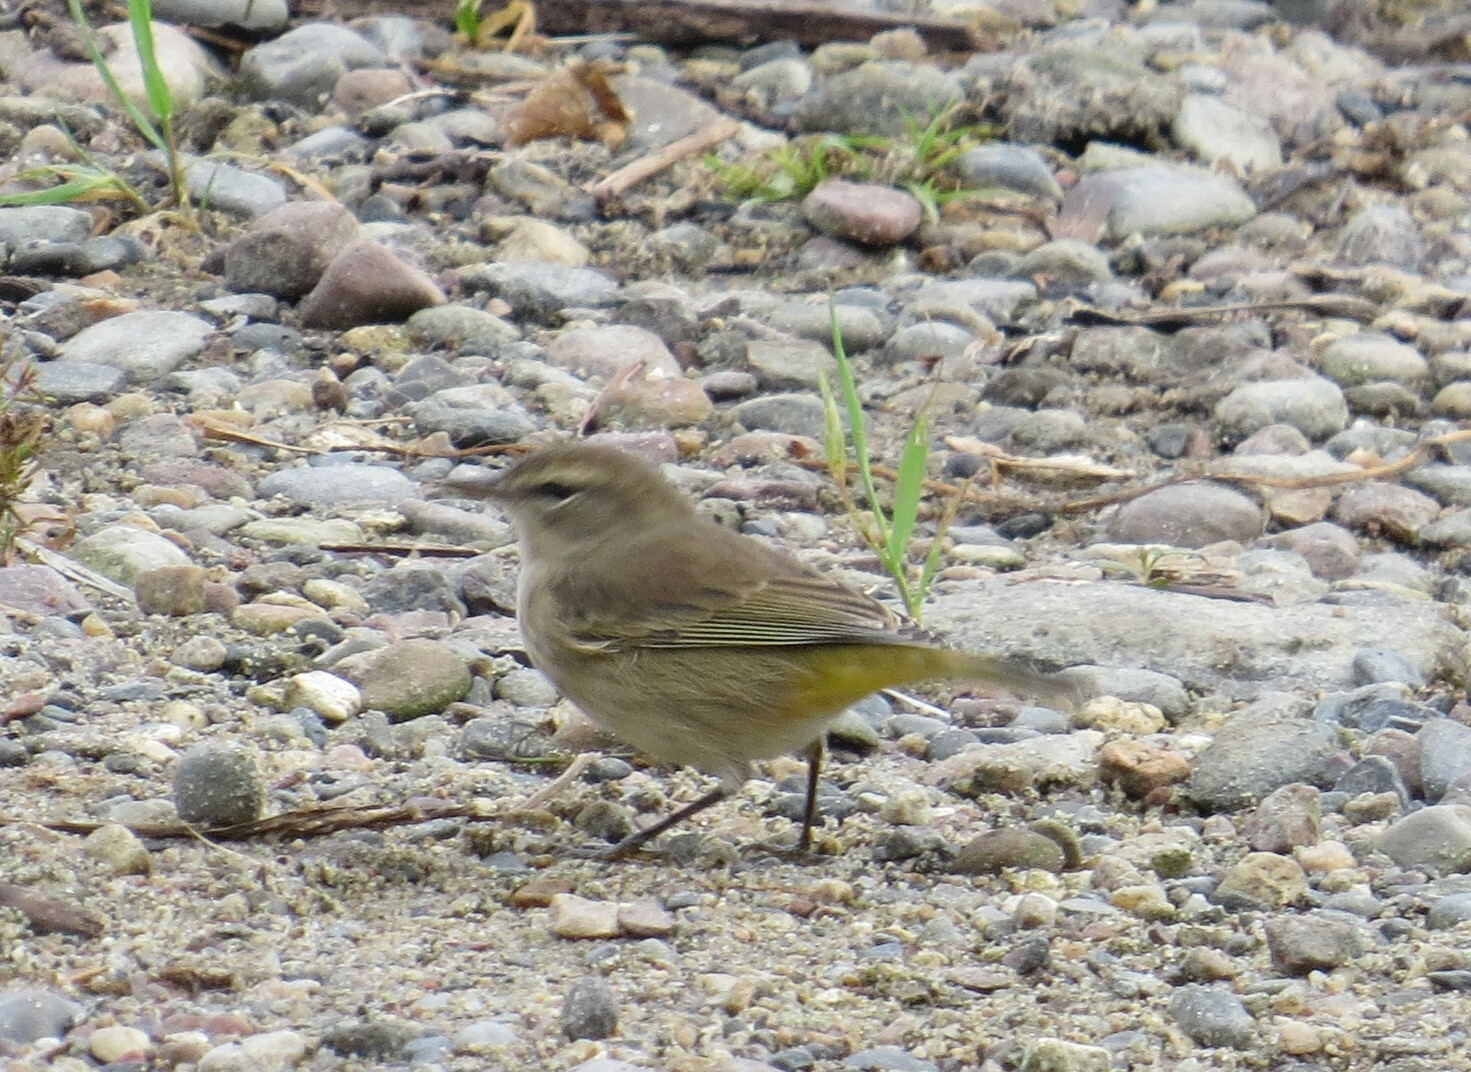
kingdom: Animalia
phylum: Chordata
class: Aves
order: Passeriformes
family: Parulidae
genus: Setophaga
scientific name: Setophaga palmarum
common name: Palm warbler
